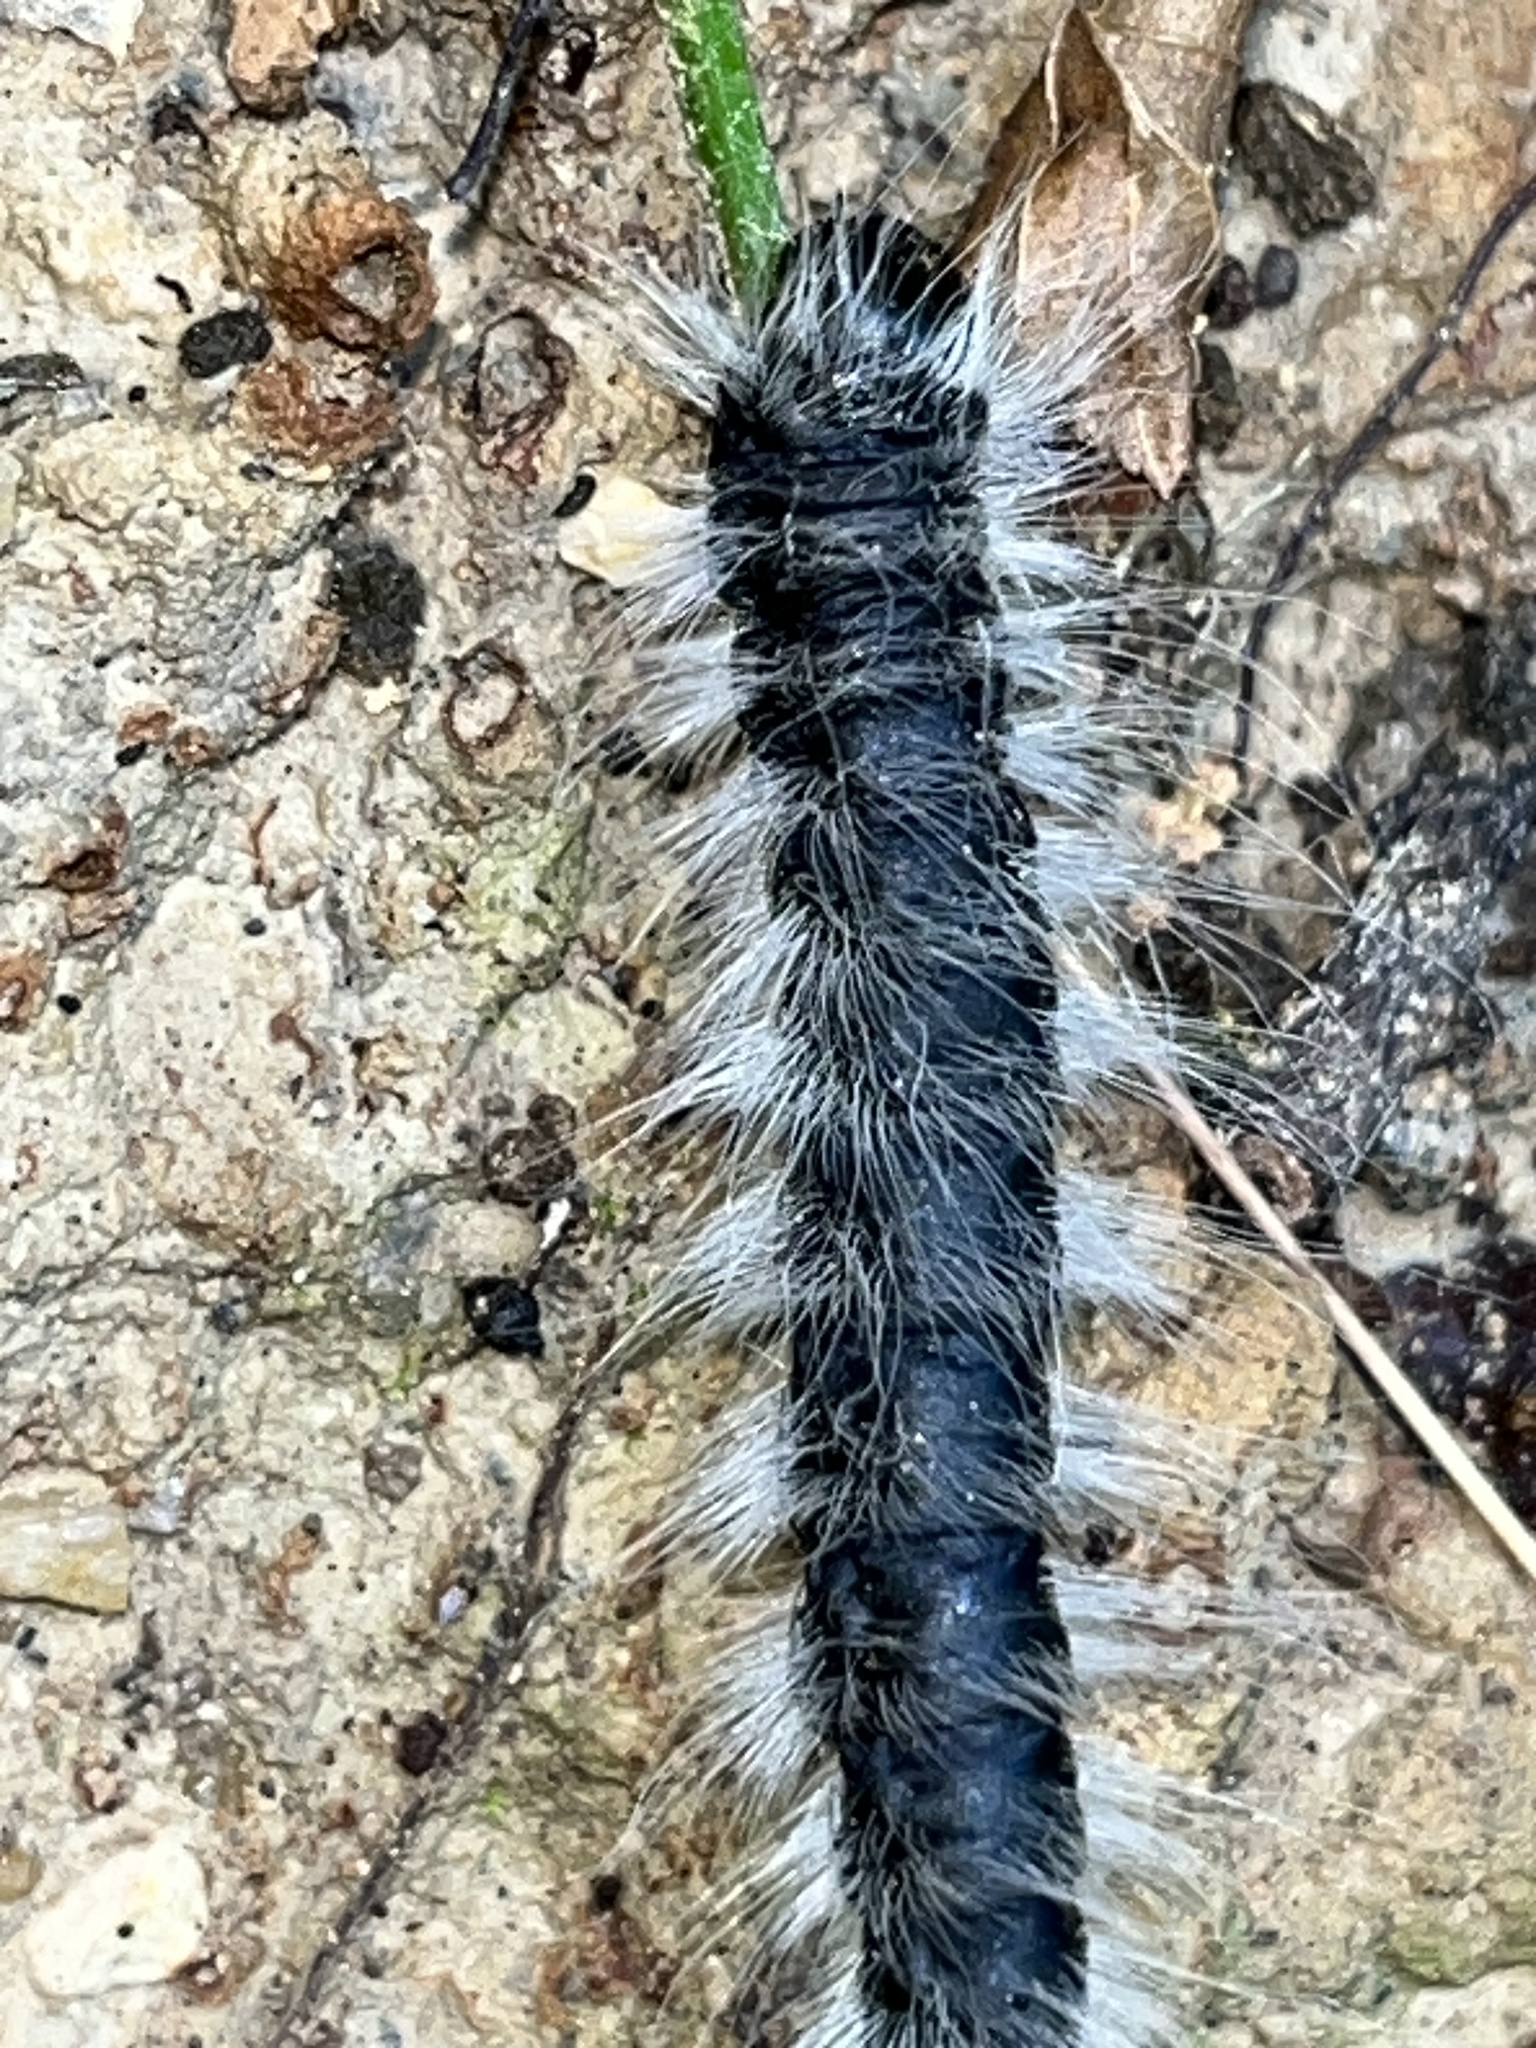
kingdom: Animalia
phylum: Arthropoda
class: Insecta
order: Lepidoptera
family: Notodontidae
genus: Datana
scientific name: Datana integerrima
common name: Walnut caterpillar
